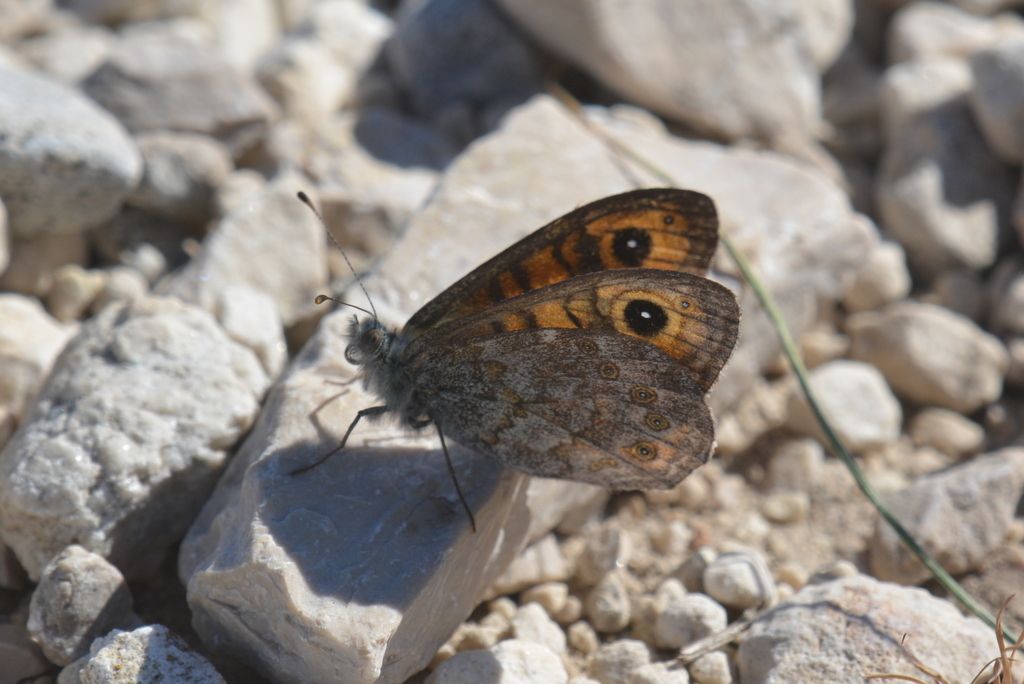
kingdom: Animalia
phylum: Arthropoda
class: Insecta
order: Lepidoptera
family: Nymphalidae
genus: Pararge
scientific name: Pararge Lasiommata megera
